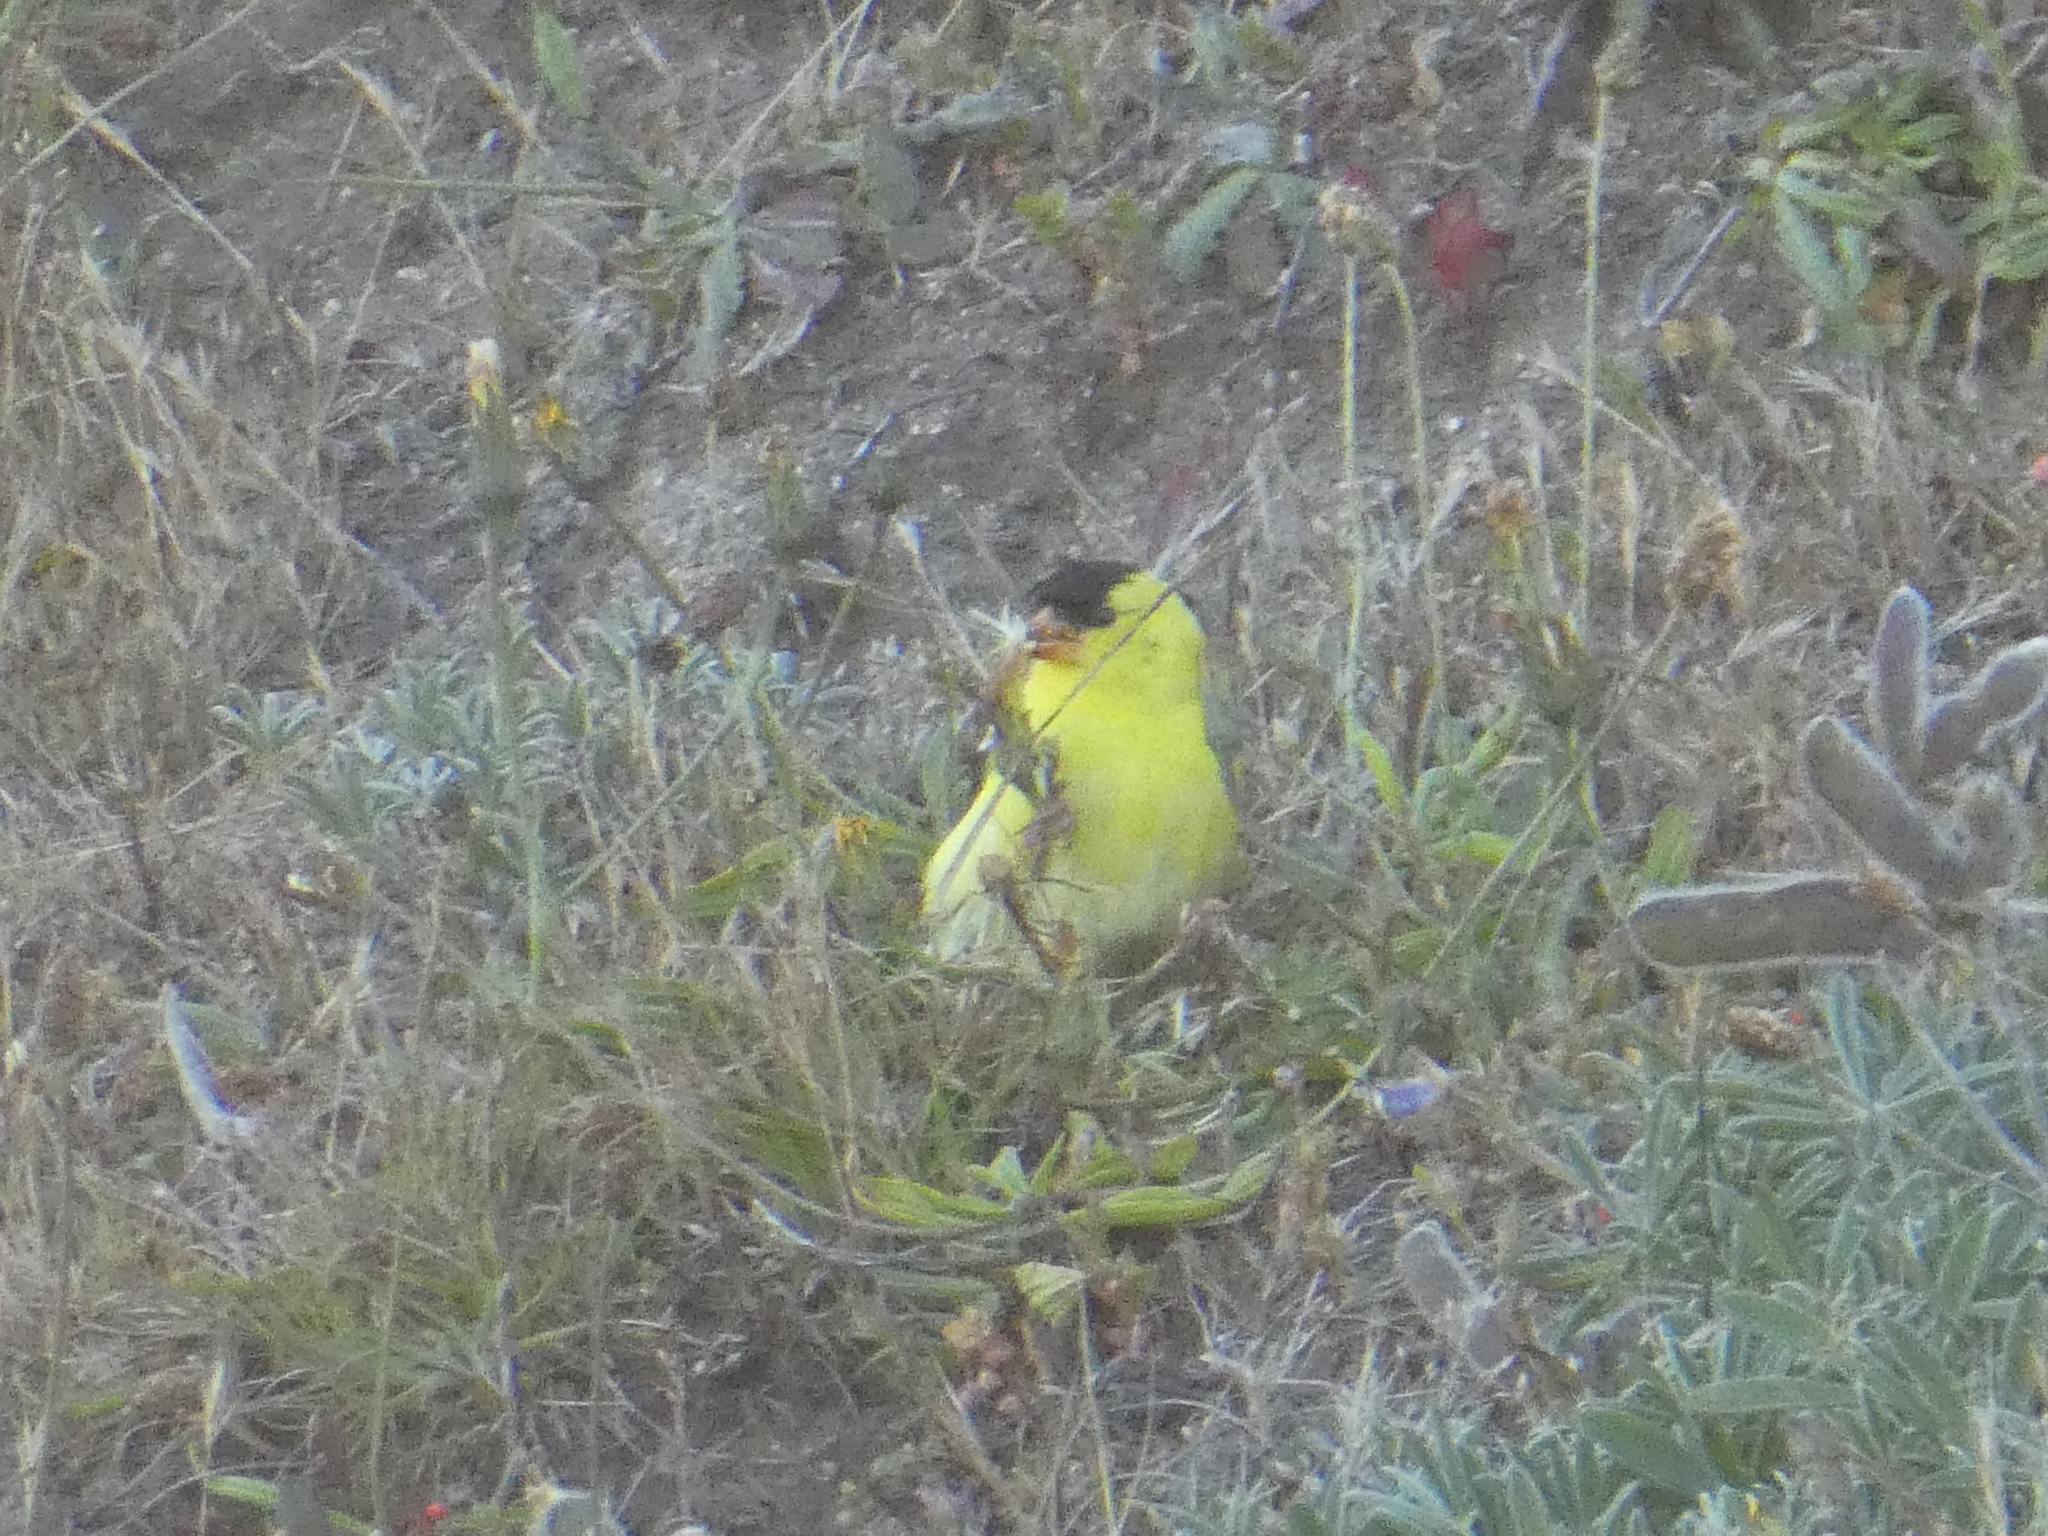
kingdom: Animalia
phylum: Chordata
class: Aves
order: Passeriformes
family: Fringillidae
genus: Spinus
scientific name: Spinus tristis
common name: American goldfinch
